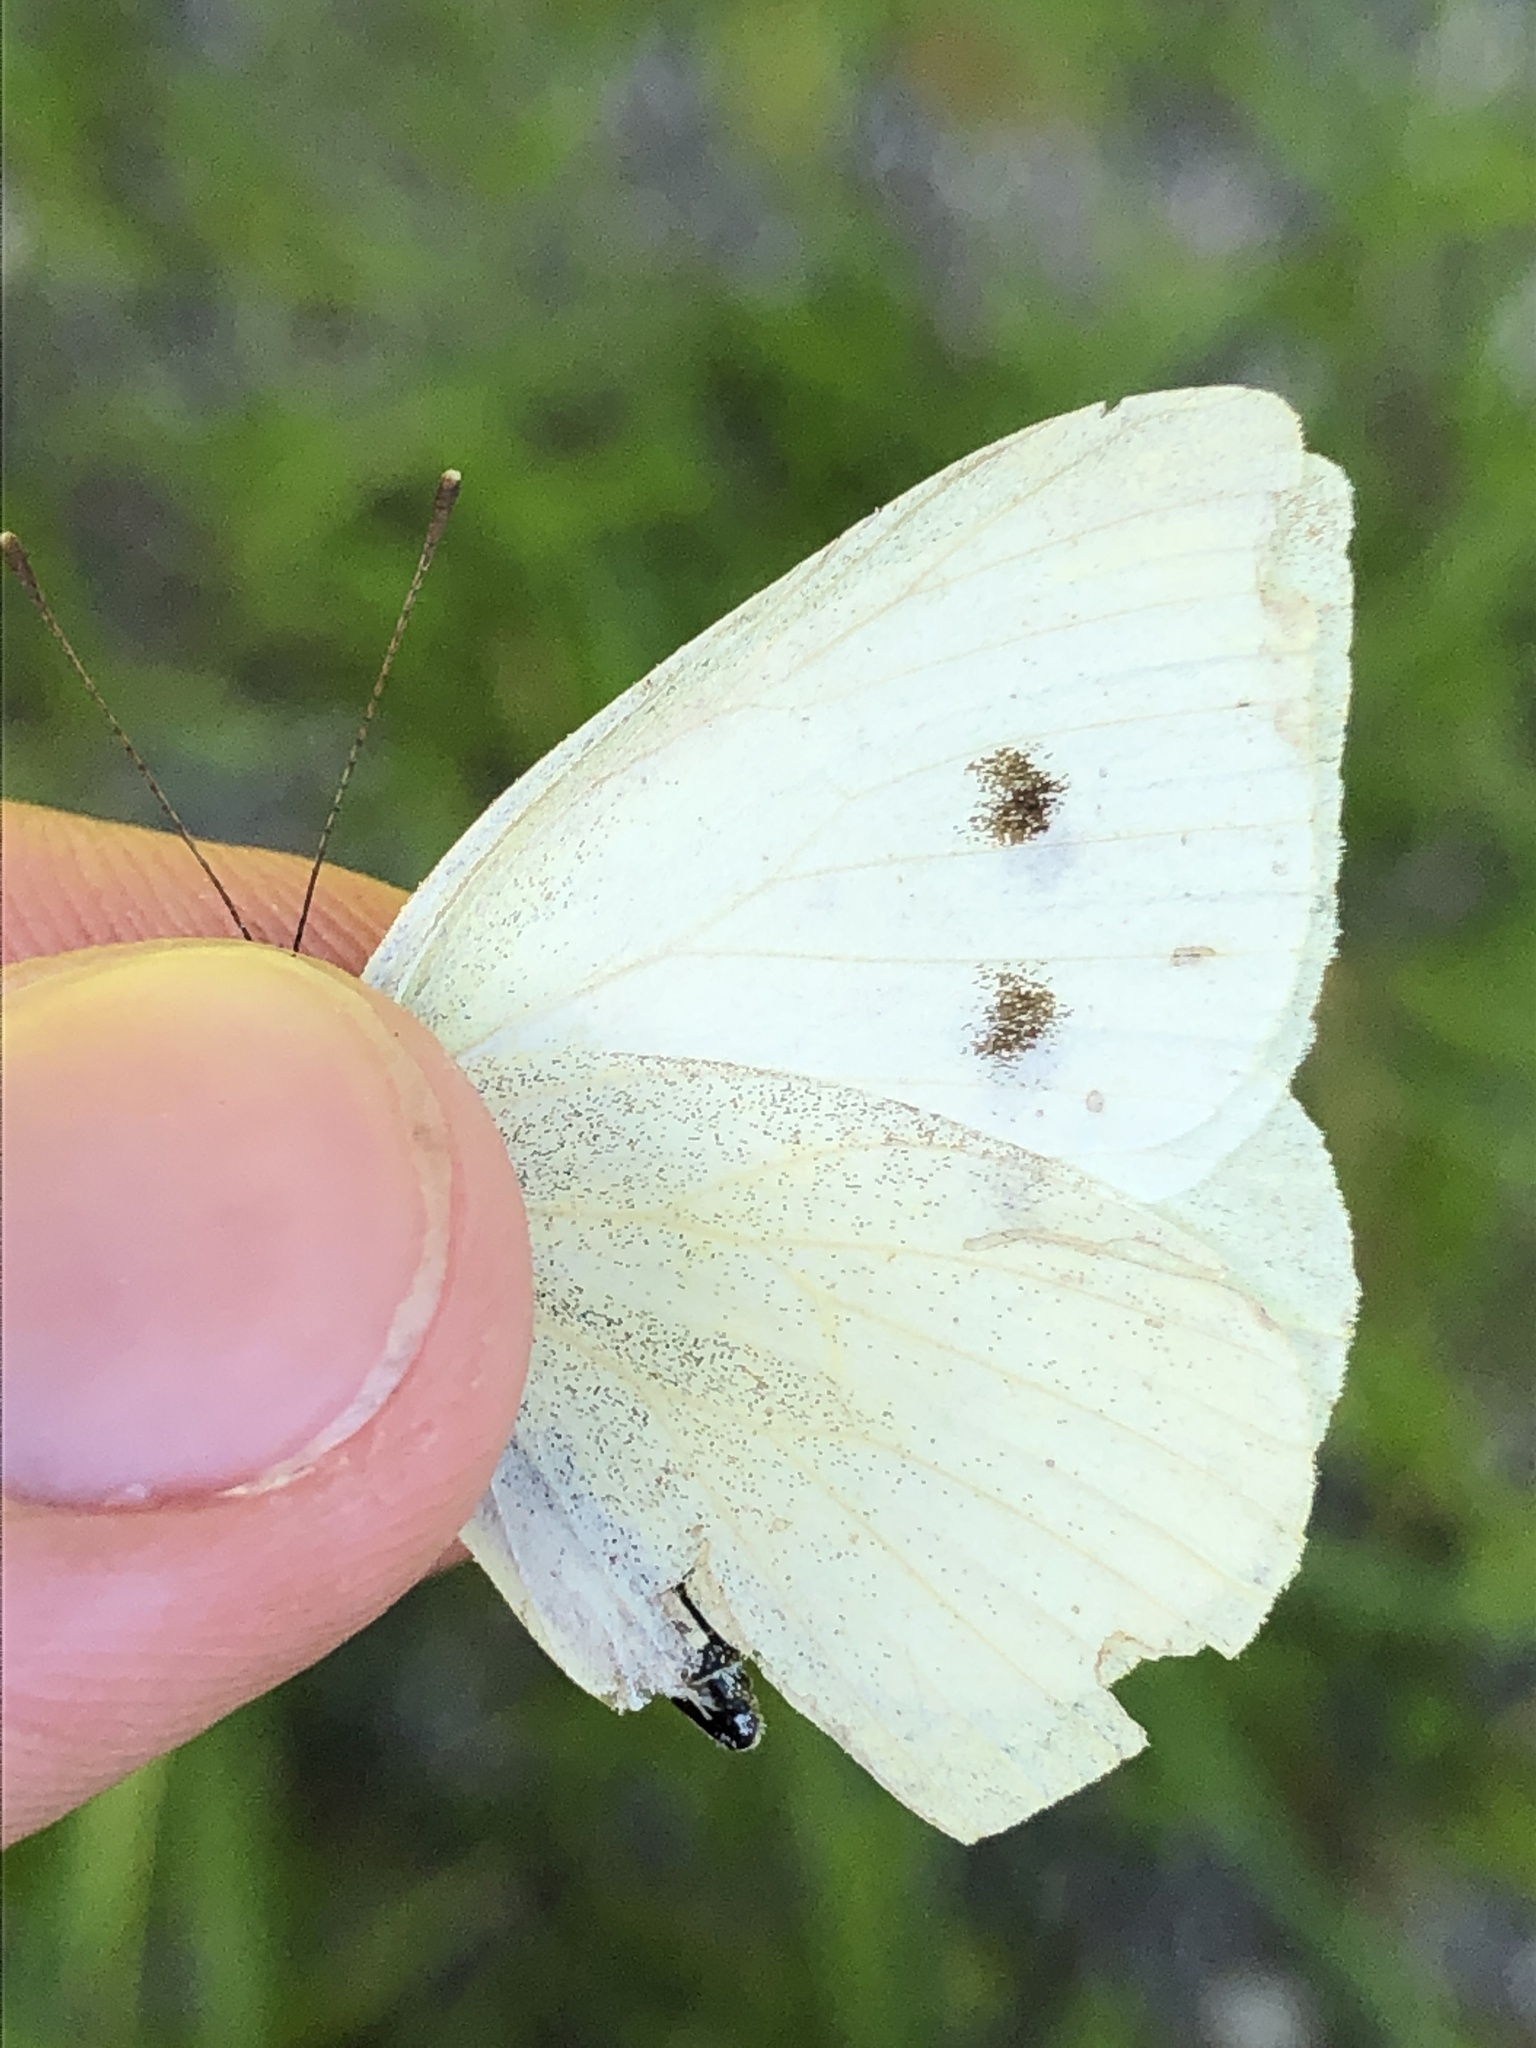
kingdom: Animalia
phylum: Arthropoda
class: Insecta
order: Lepidoptera
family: Pieridae
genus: Pieris
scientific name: Pieris rapae
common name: Small white
